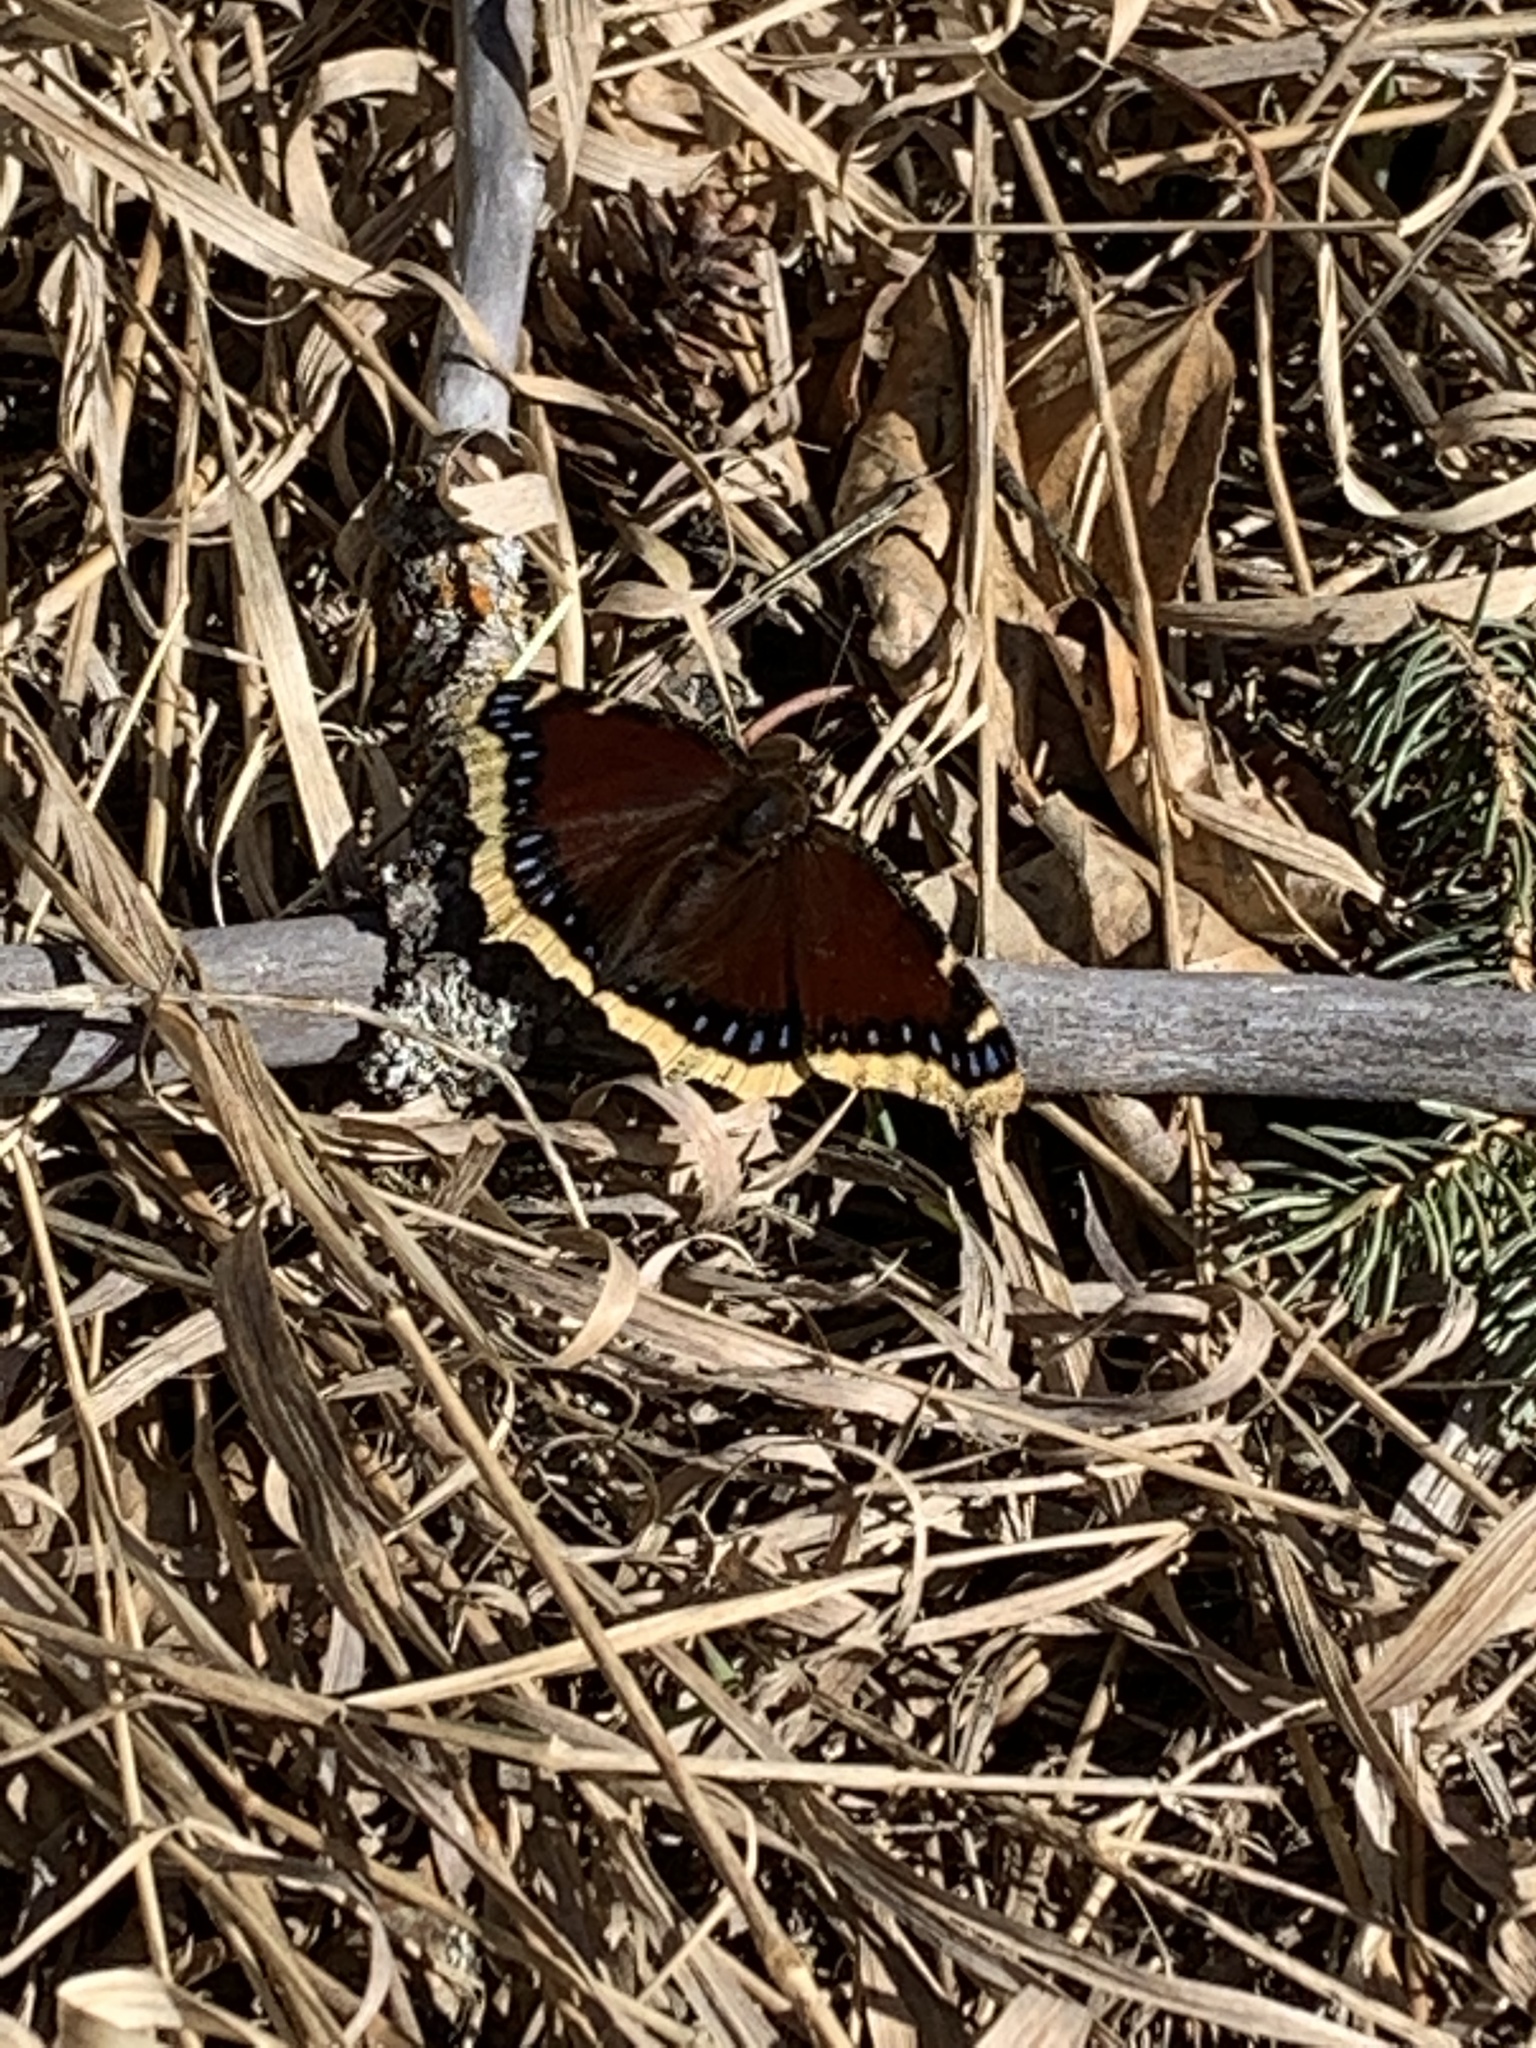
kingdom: Animalia
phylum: Arthropoda
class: Insecta
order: Lepidoptera
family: Nymphalidae
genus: Nymphalis
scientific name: Nymphalis antiopa
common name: Camberwell beauty
